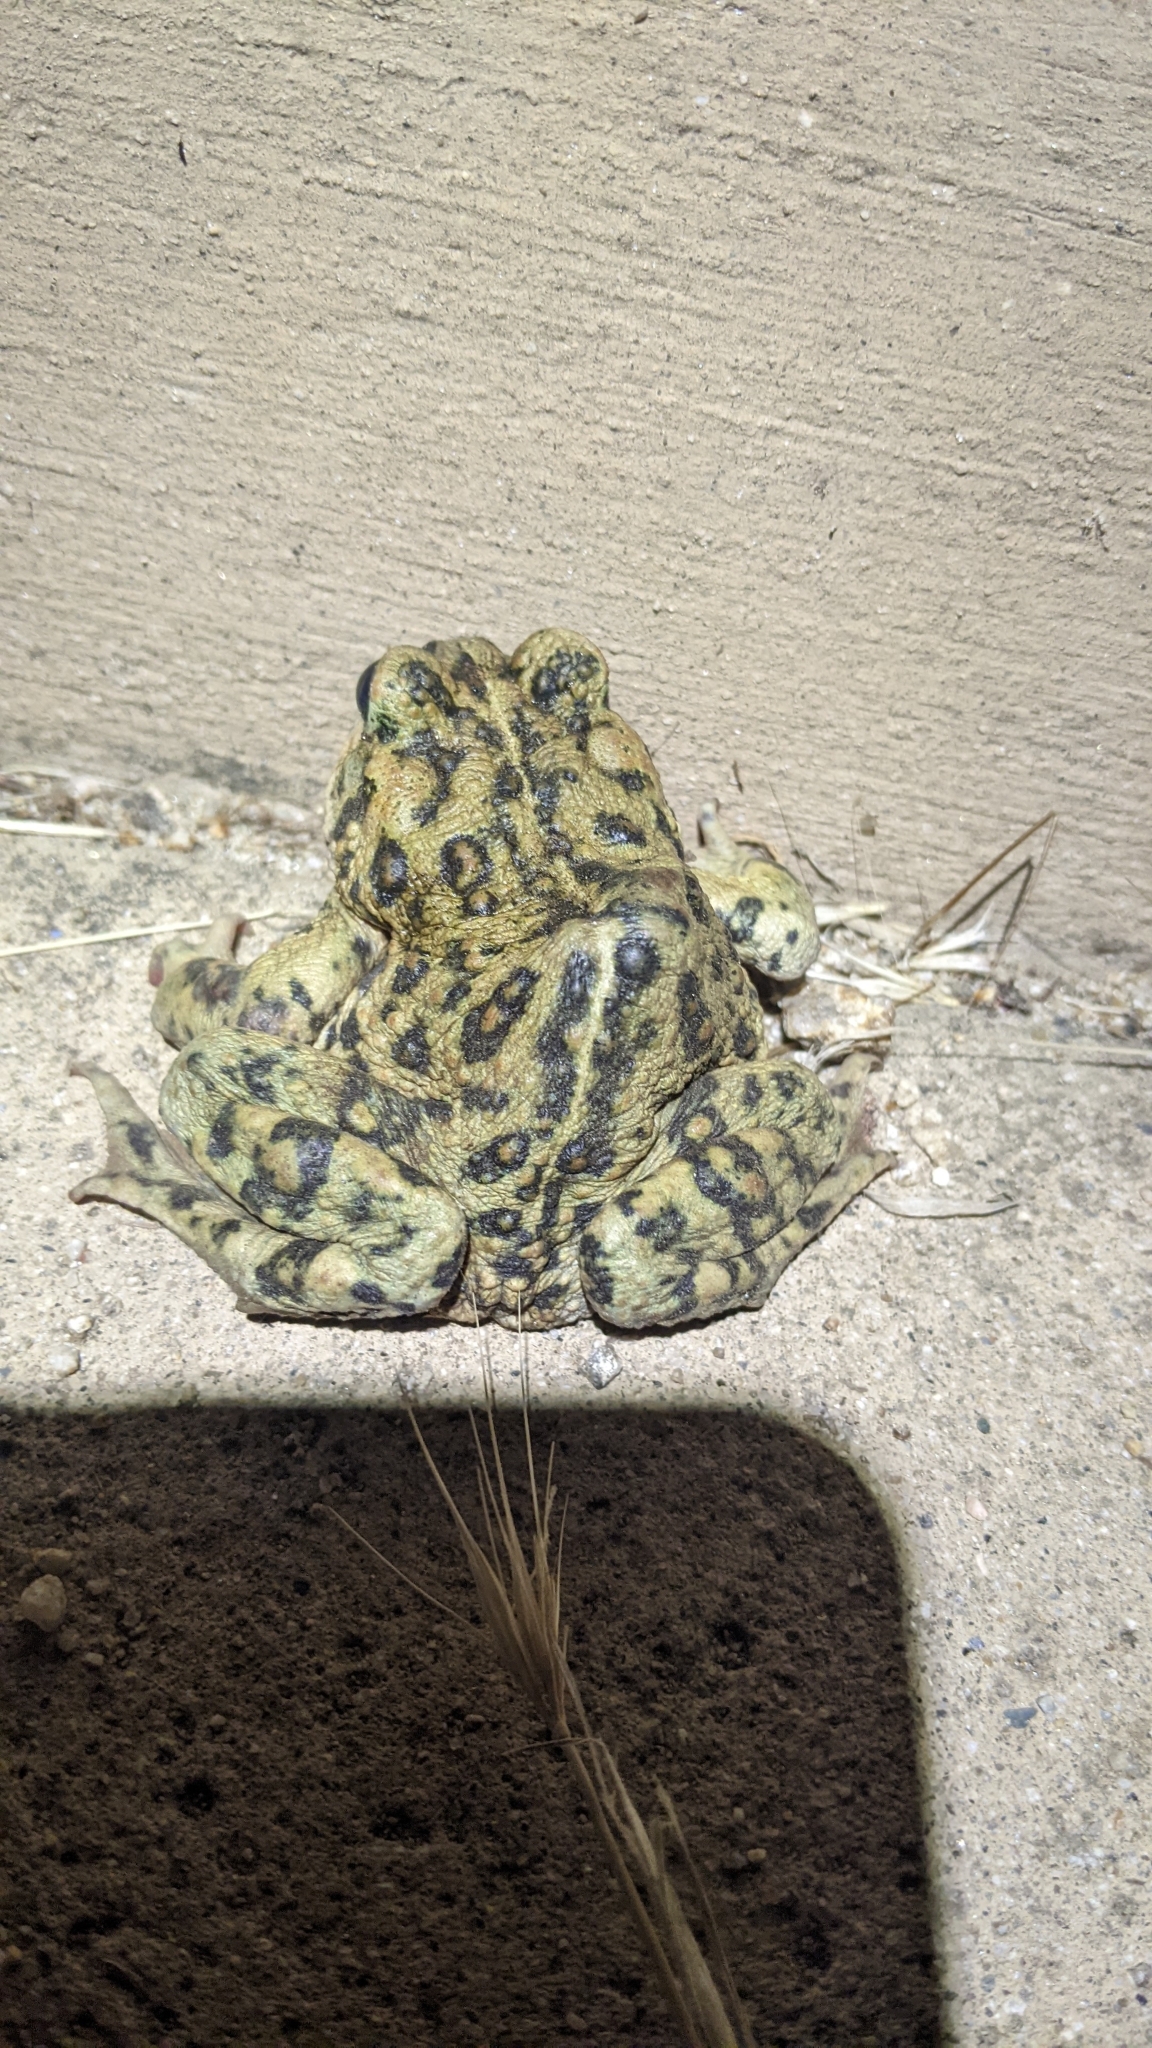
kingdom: Animalia
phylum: Chordata
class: Amphibia
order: Anura
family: Bufonidae
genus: Anaxyrus
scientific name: Anaxyrus boreas
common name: Western toad
